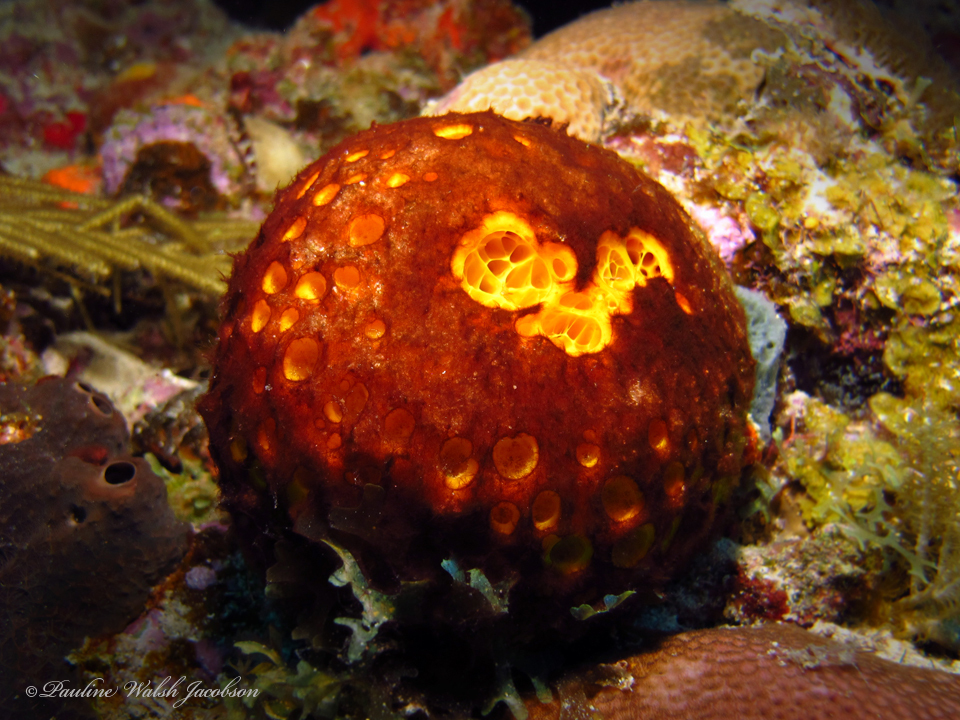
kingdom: Animalia
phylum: Porifera
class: Demospongiae
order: Tetractinellida
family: Tetillidae
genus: Cinachyrella
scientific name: Cinachyrella kuekenthali
